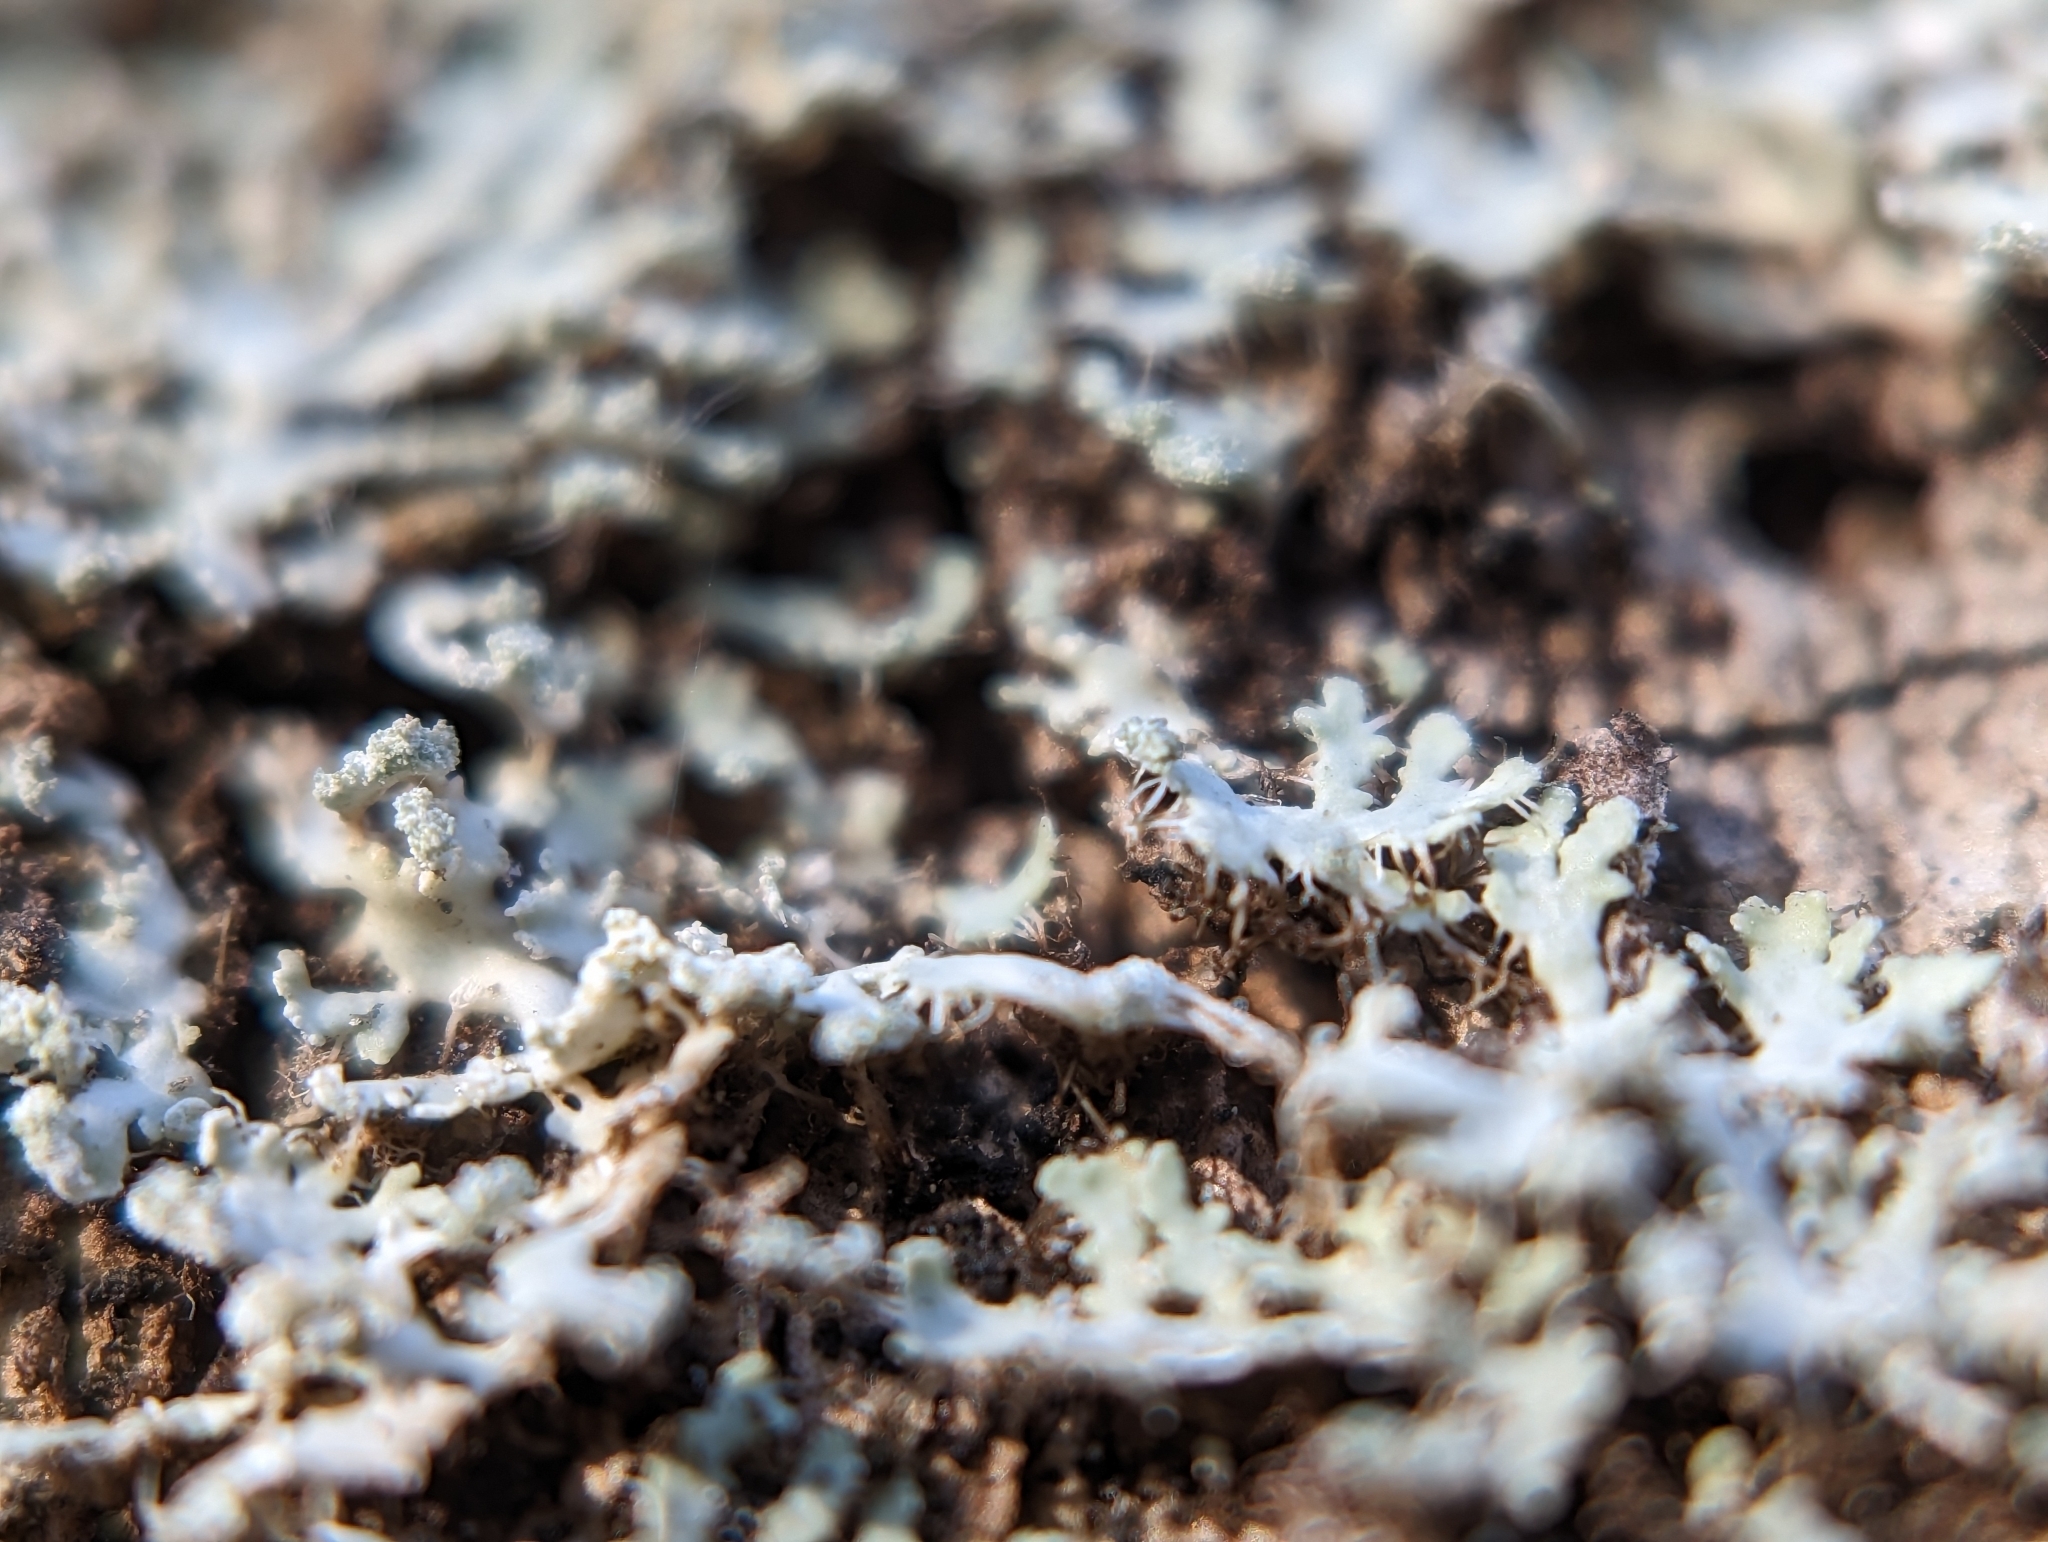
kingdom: Fungi
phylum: Ascomycota
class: Lecanoromycetes
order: Caliciales
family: Physciaceae
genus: Heterodermia
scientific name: Heterodermia speciosa
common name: Powdered fringe lichen
